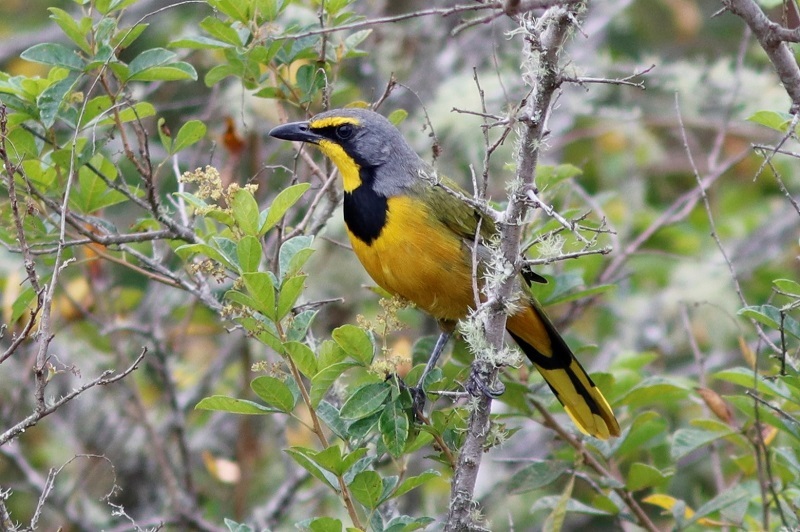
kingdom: Animalia
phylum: Chordata
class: Aves
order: Passeriformes
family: Malaconotidae
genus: Telophorus
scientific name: Telophorus zeylonus
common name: Bokmakierie
